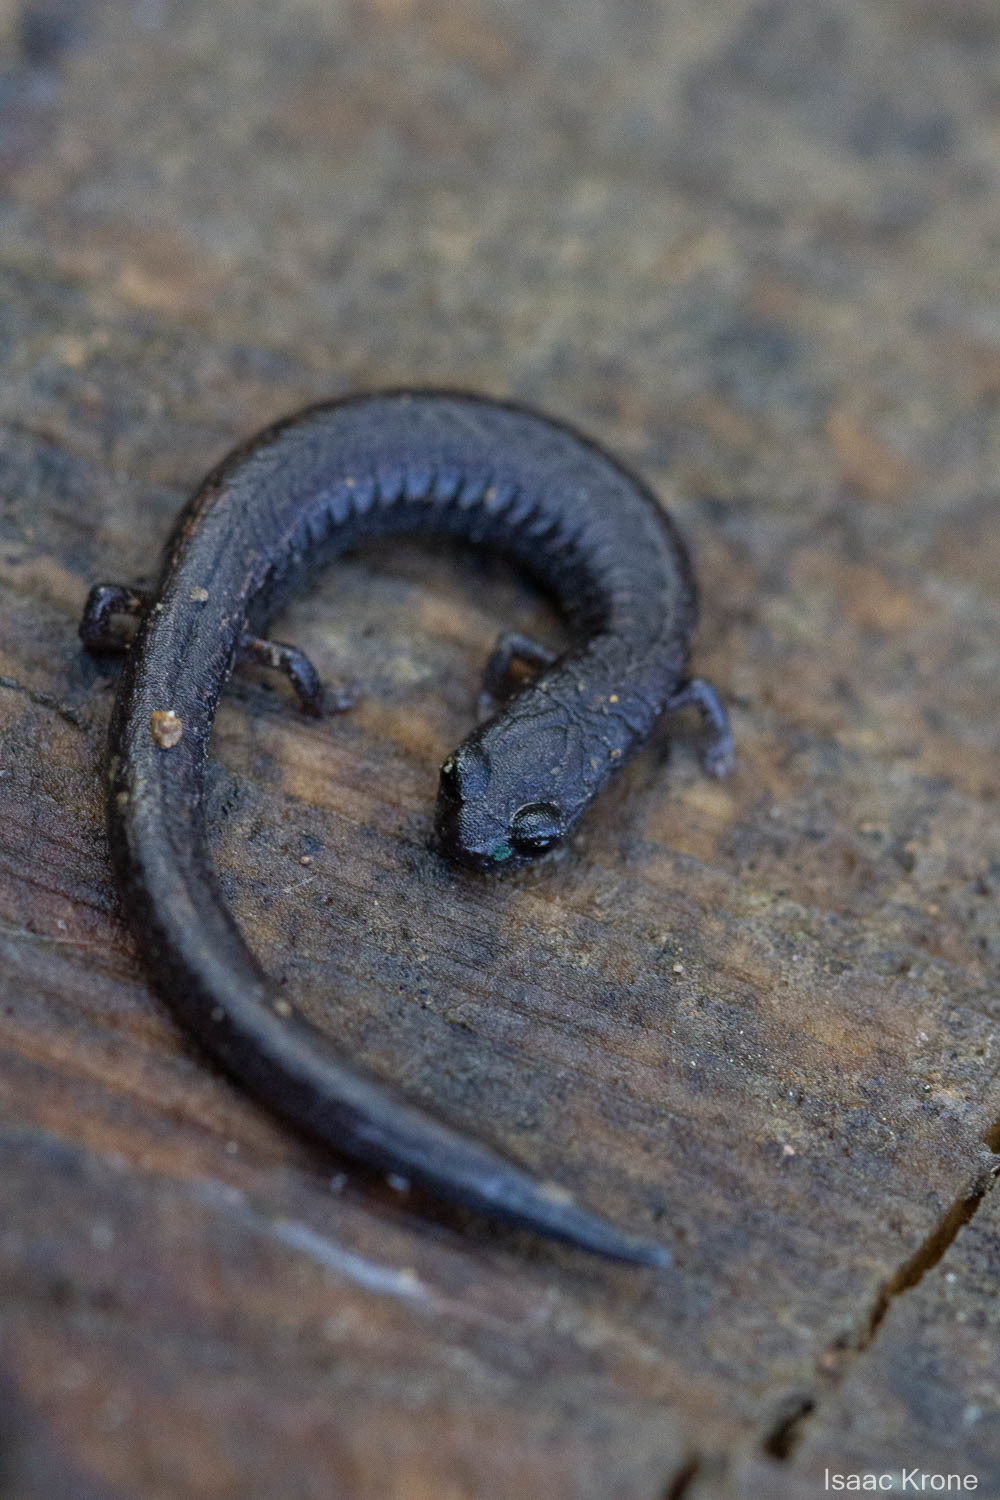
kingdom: Animalia
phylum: Chordata
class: Amphibia
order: Caudata
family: Plethodontidae
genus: Batrachoseps
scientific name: Batrachoseps attenuatus
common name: California slender salamander
